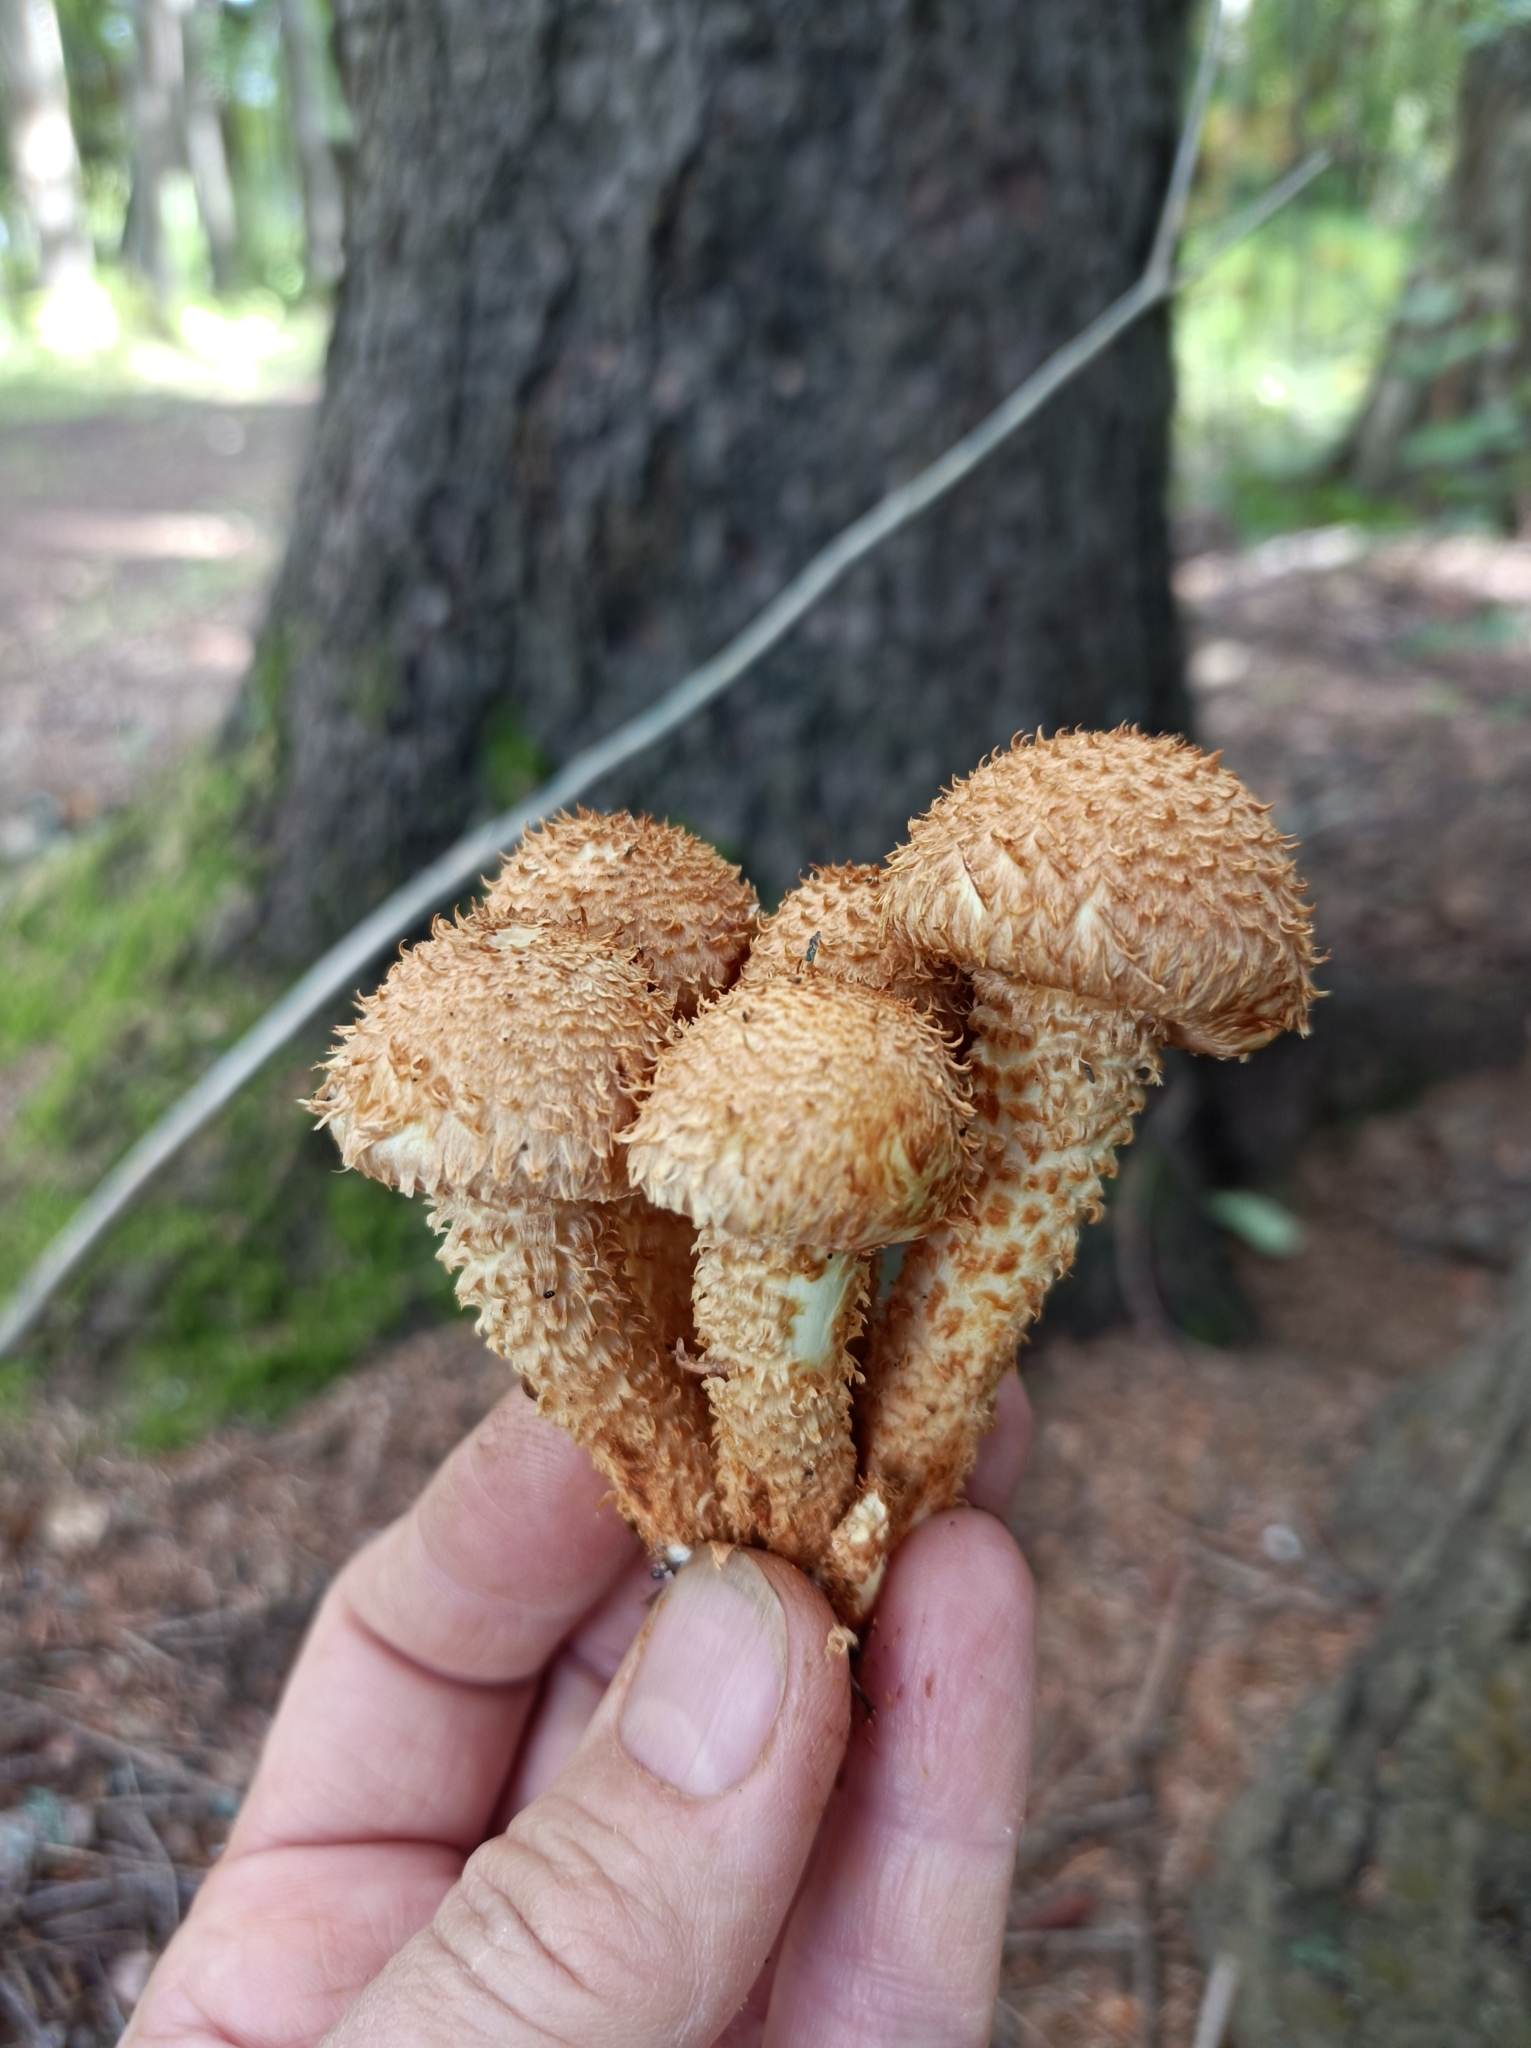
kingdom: Fungi
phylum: Basidiomycota
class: Agaricomycetes
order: Agaricales
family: Strophariaceae
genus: Pholiota
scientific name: Pholiota squarrosa
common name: Shaggy pholiota
